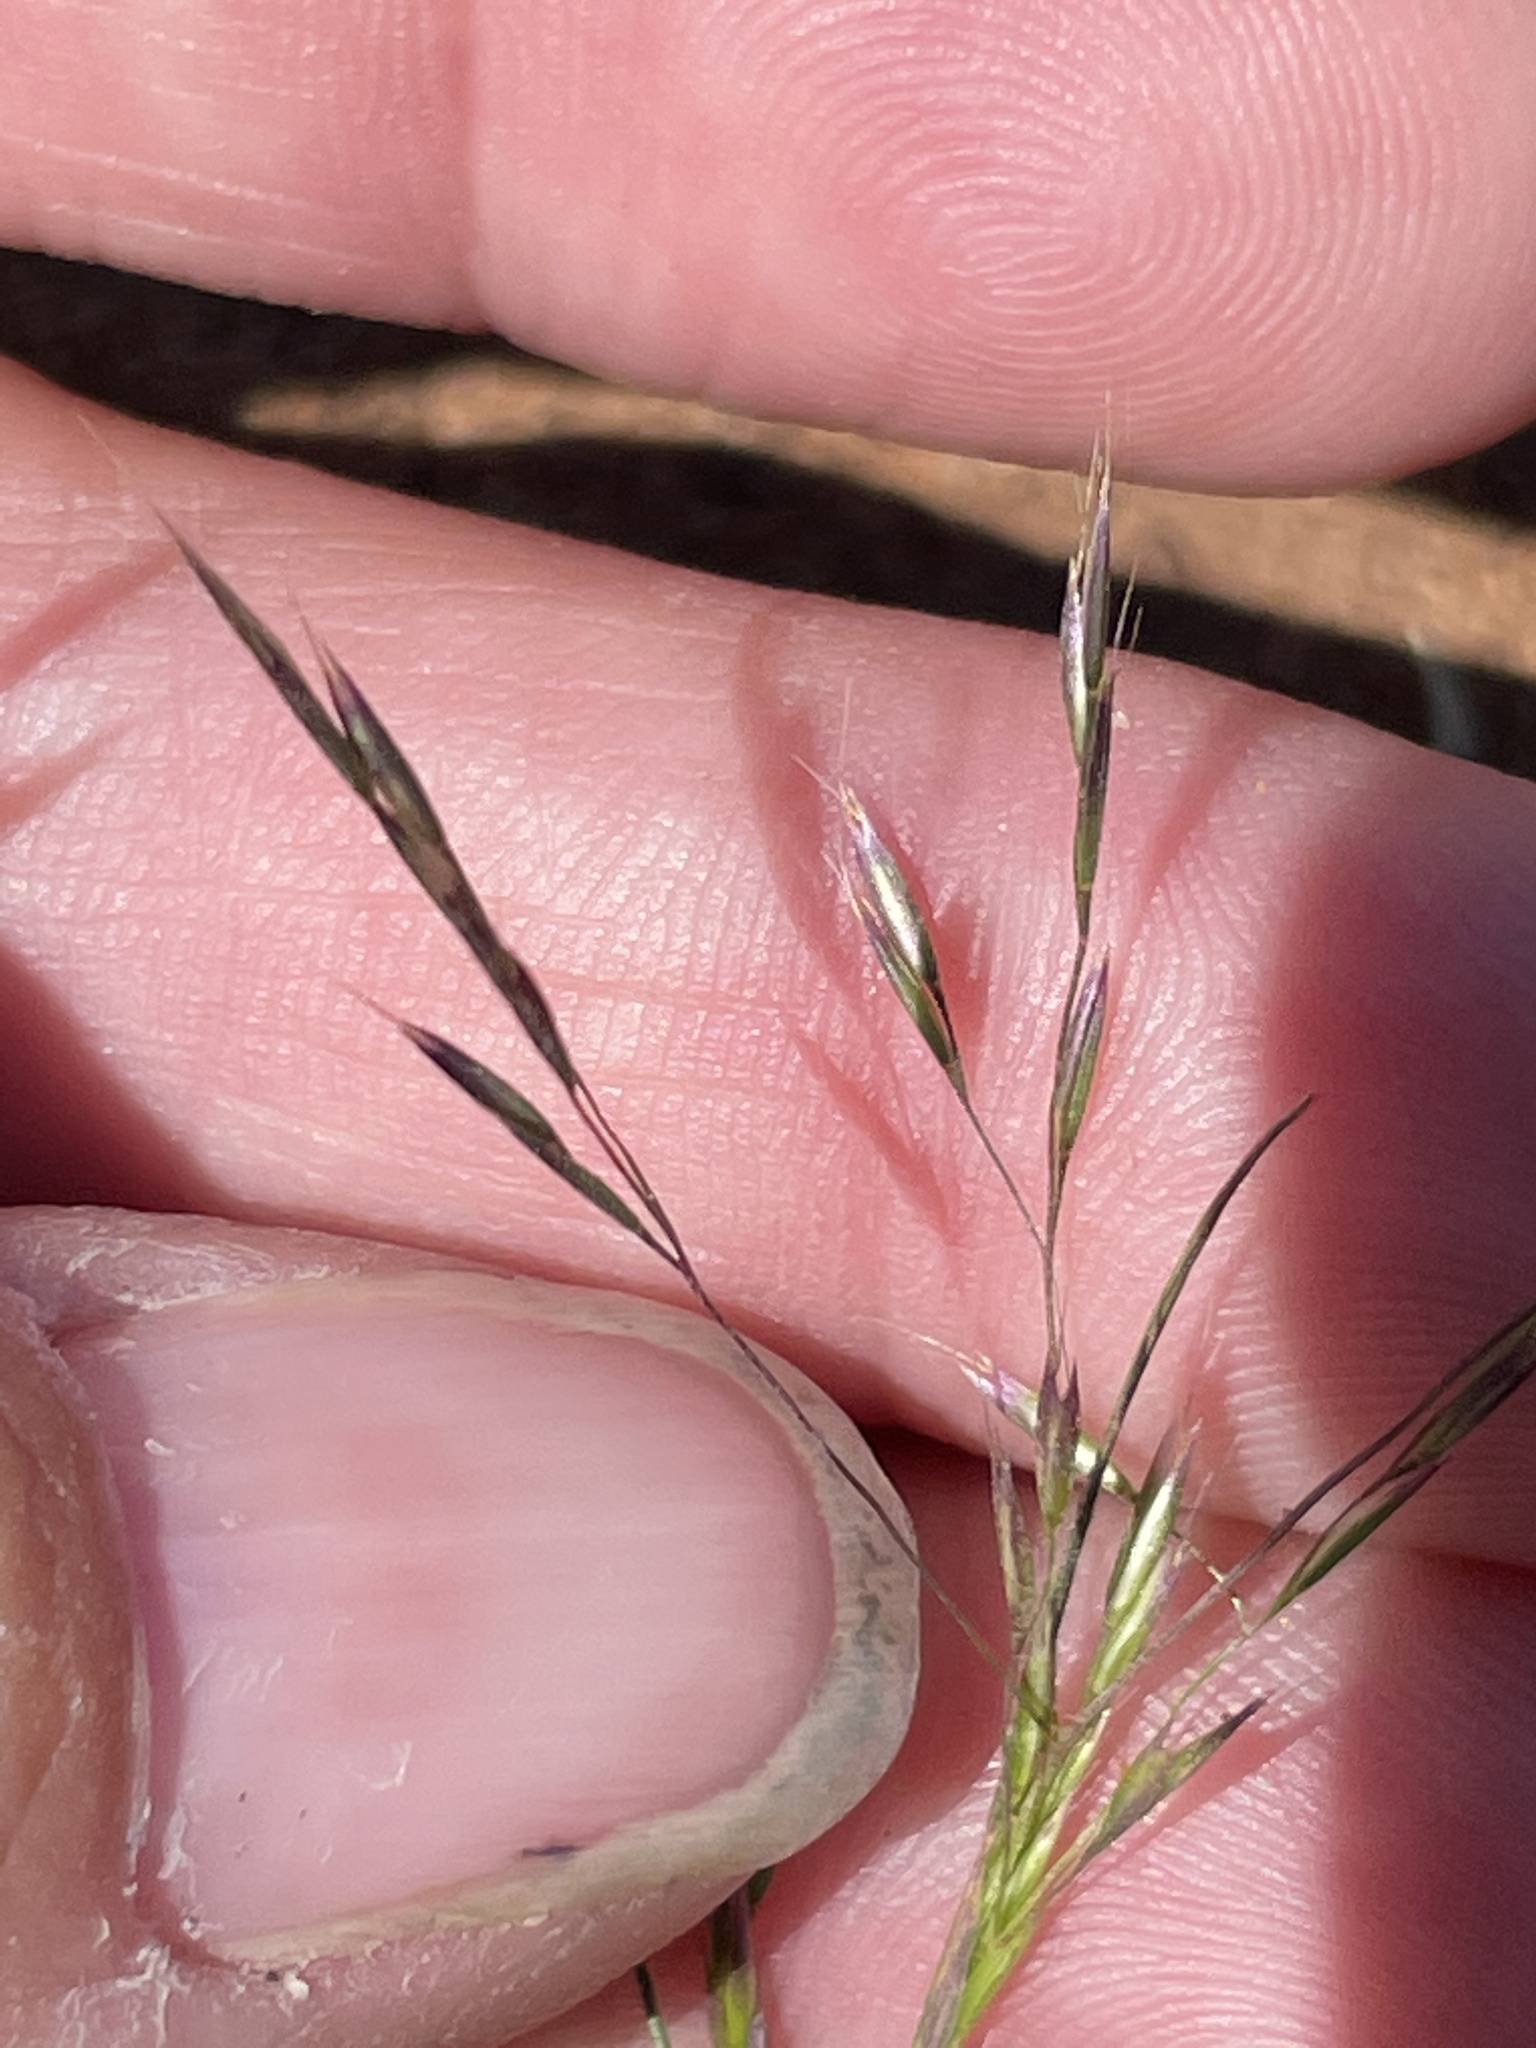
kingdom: Plantae
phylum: Tracheophyta
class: Liliopsida
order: Poales
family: Poaceae
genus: Deschampsia
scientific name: Deschampsia danthonioides
